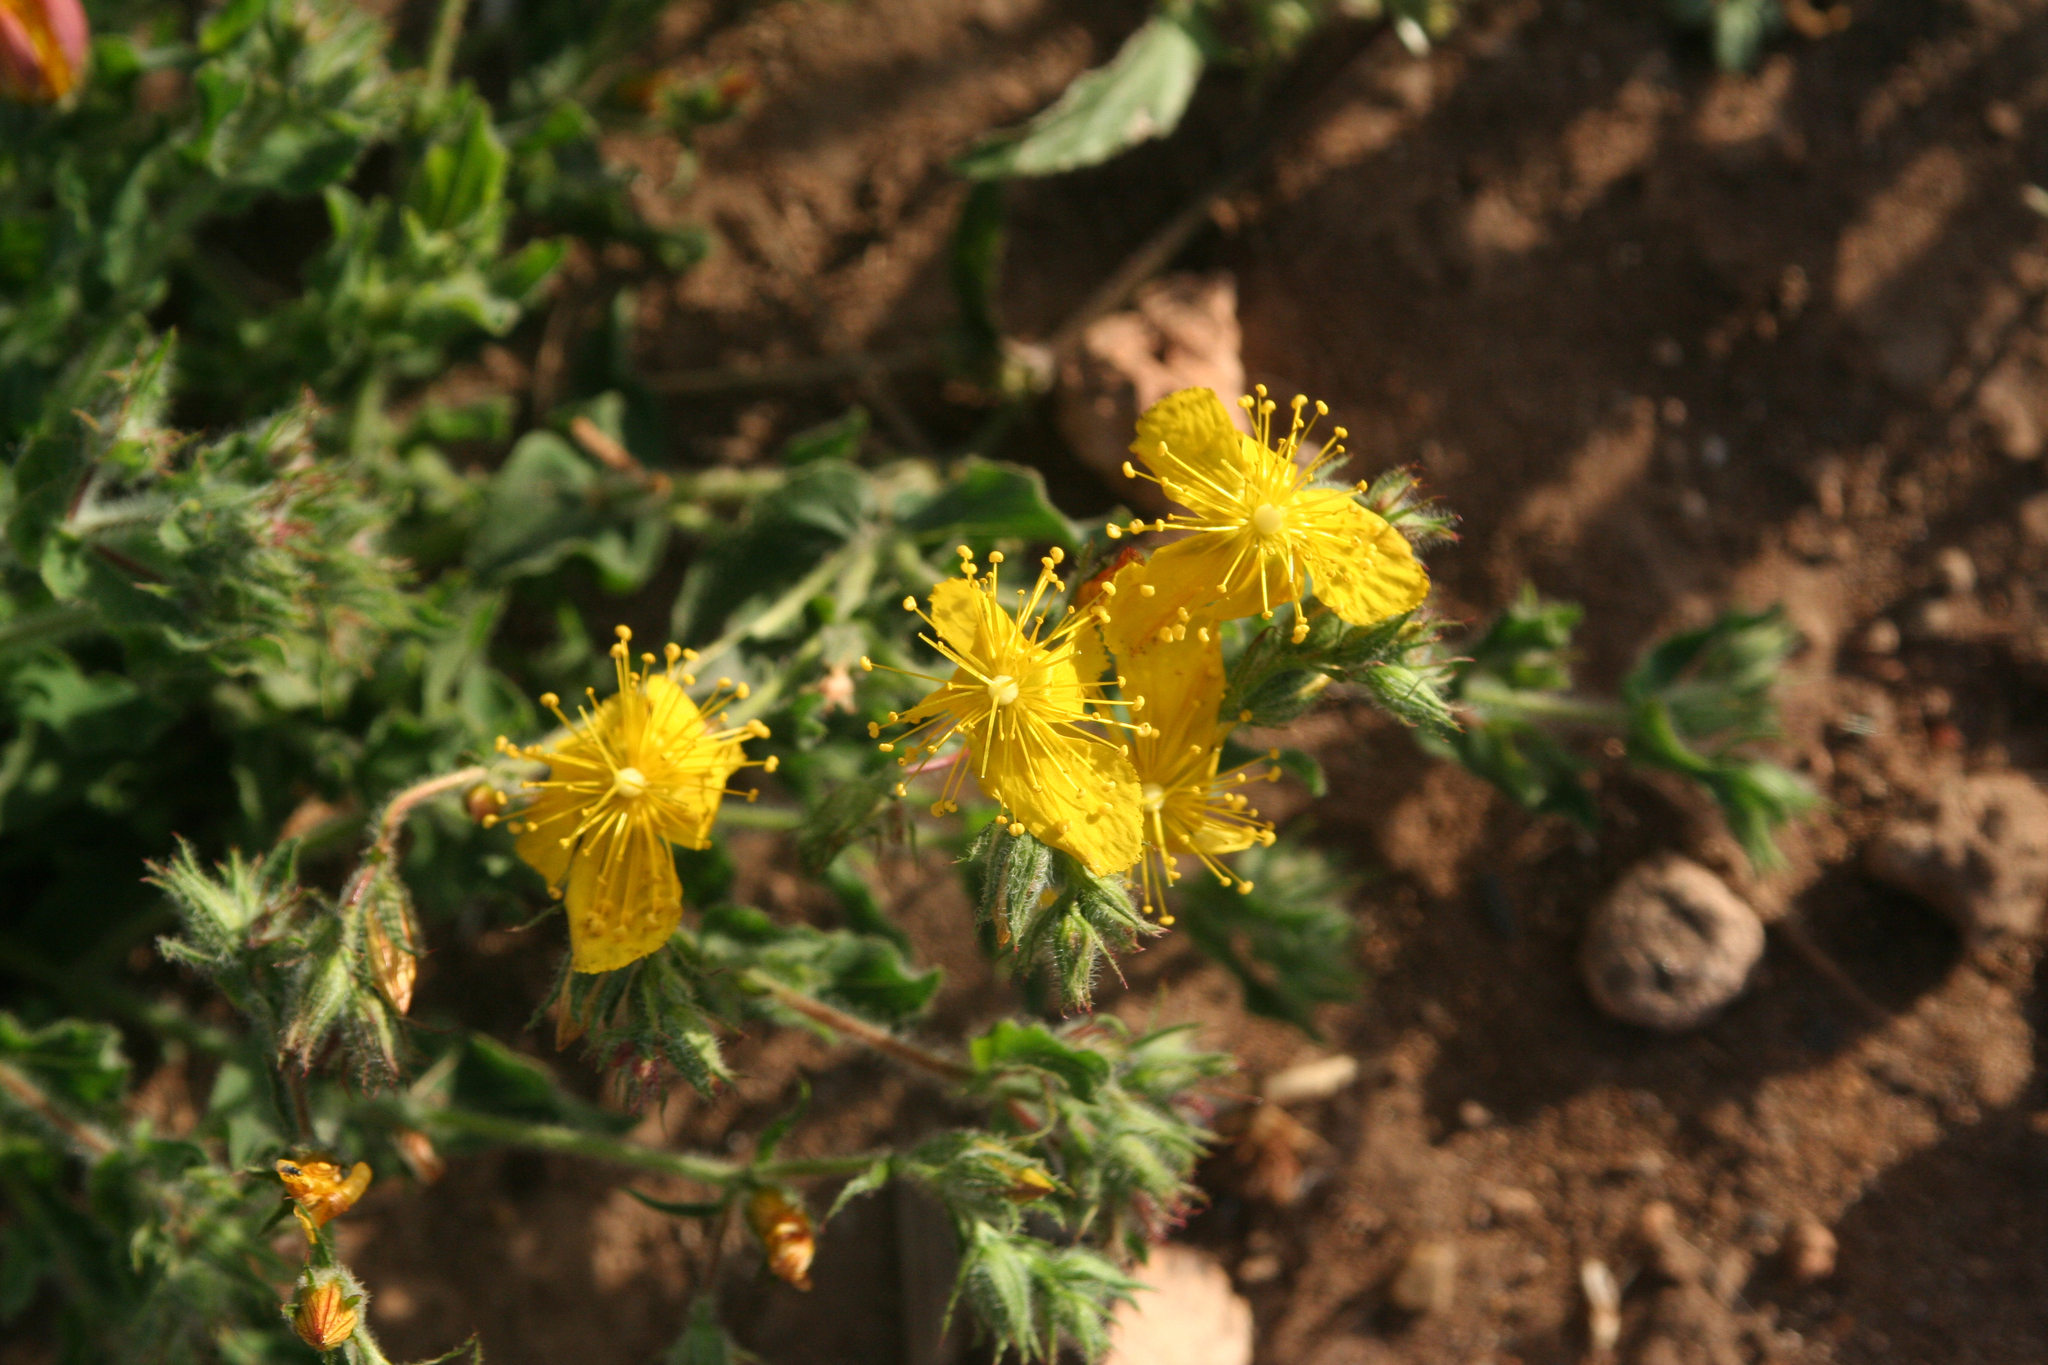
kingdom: Plantae
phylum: Tracheophyta
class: Magnoliopsida
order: Malpighiales
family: Hypericaceae
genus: Hypericum
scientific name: Hypericum pubescens
